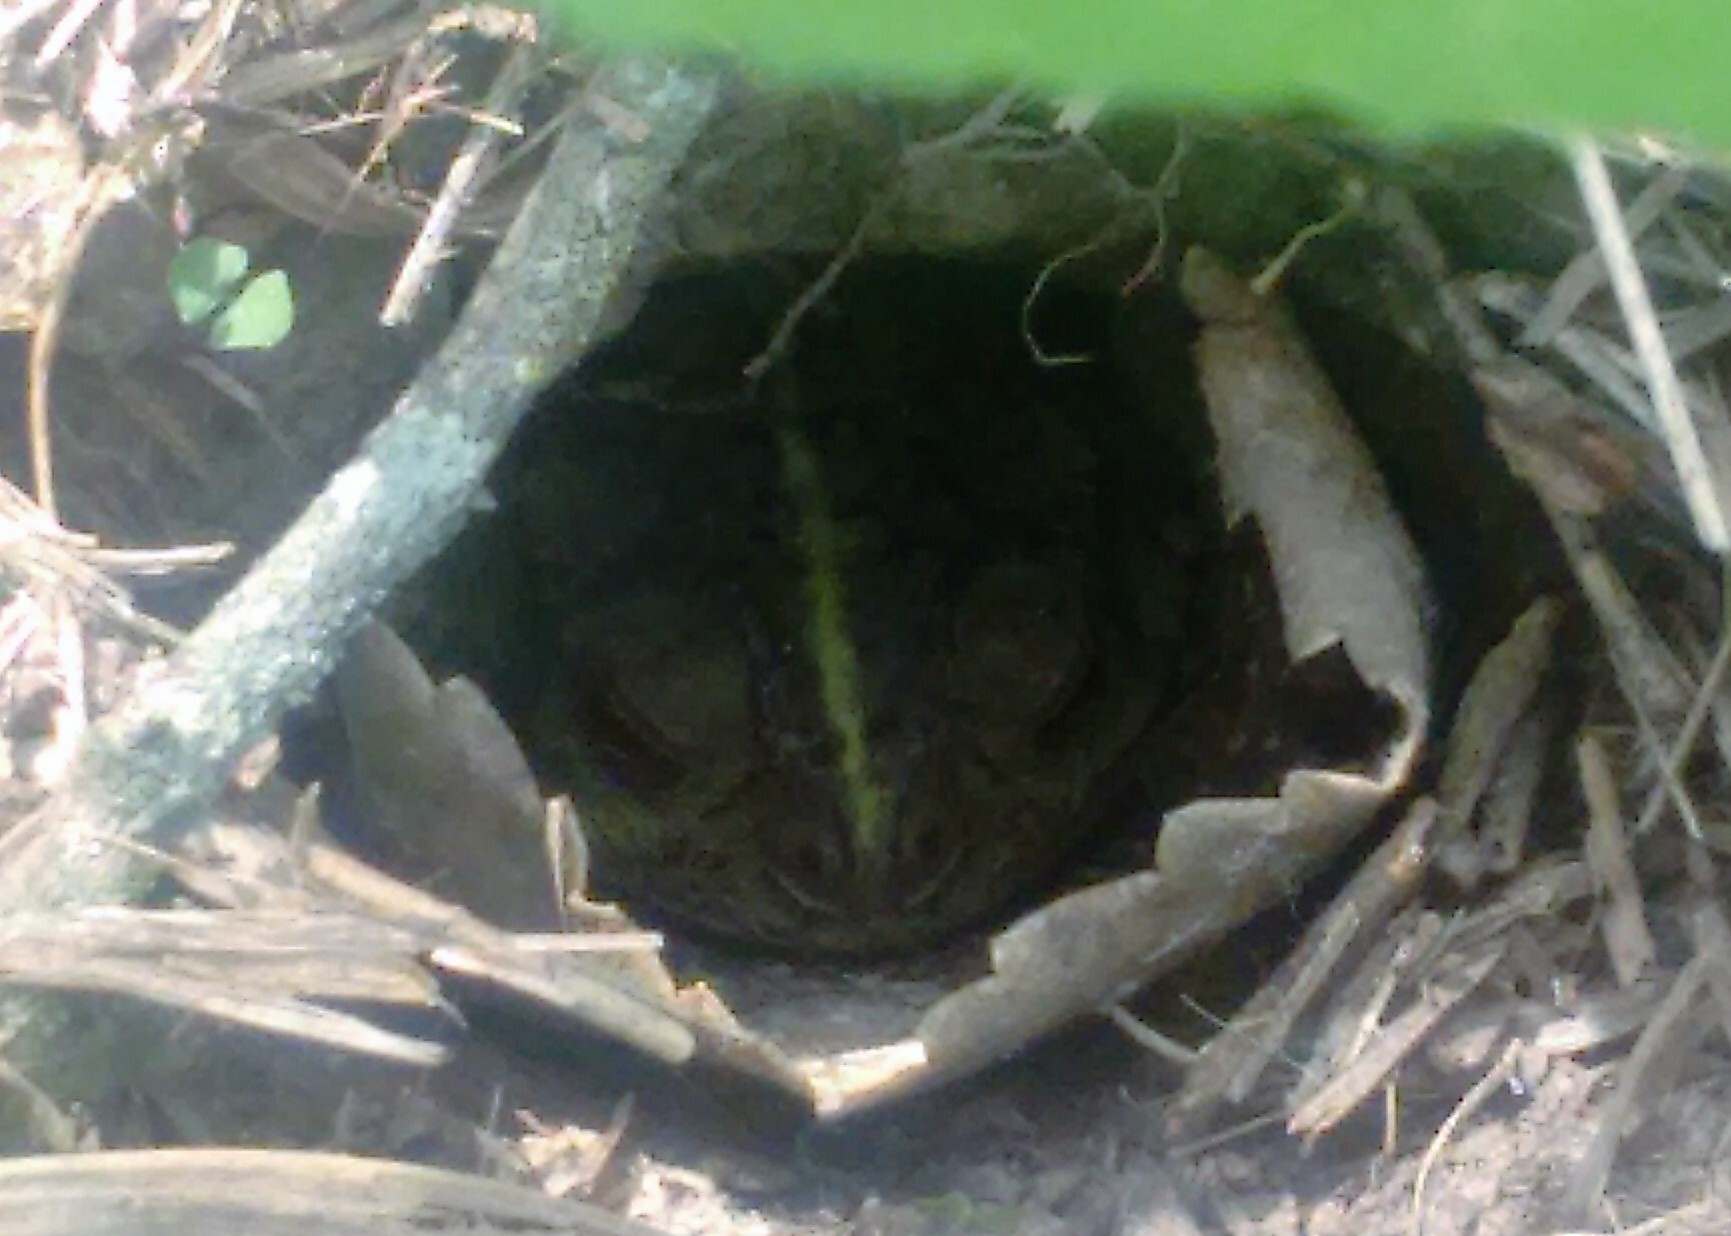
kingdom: Animalia
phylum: Chordata
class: Amphibia
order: Anura
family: Bufonidae
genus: Rhinella
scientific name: Rhinella dorbignyi
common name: D´orbigny’s toad
